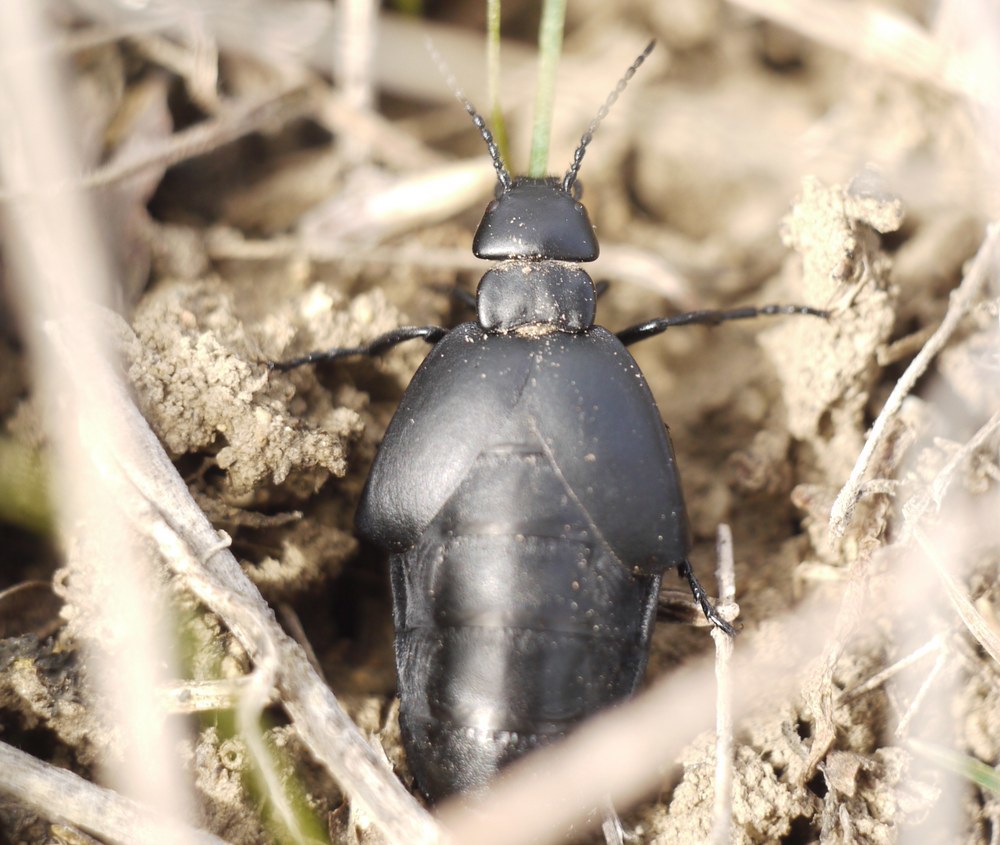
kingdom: Animalia
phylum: Arthropoda
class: Insecta
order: Coleoptera
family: Meloidae
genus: Meloe
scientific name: Meloe uralensis
